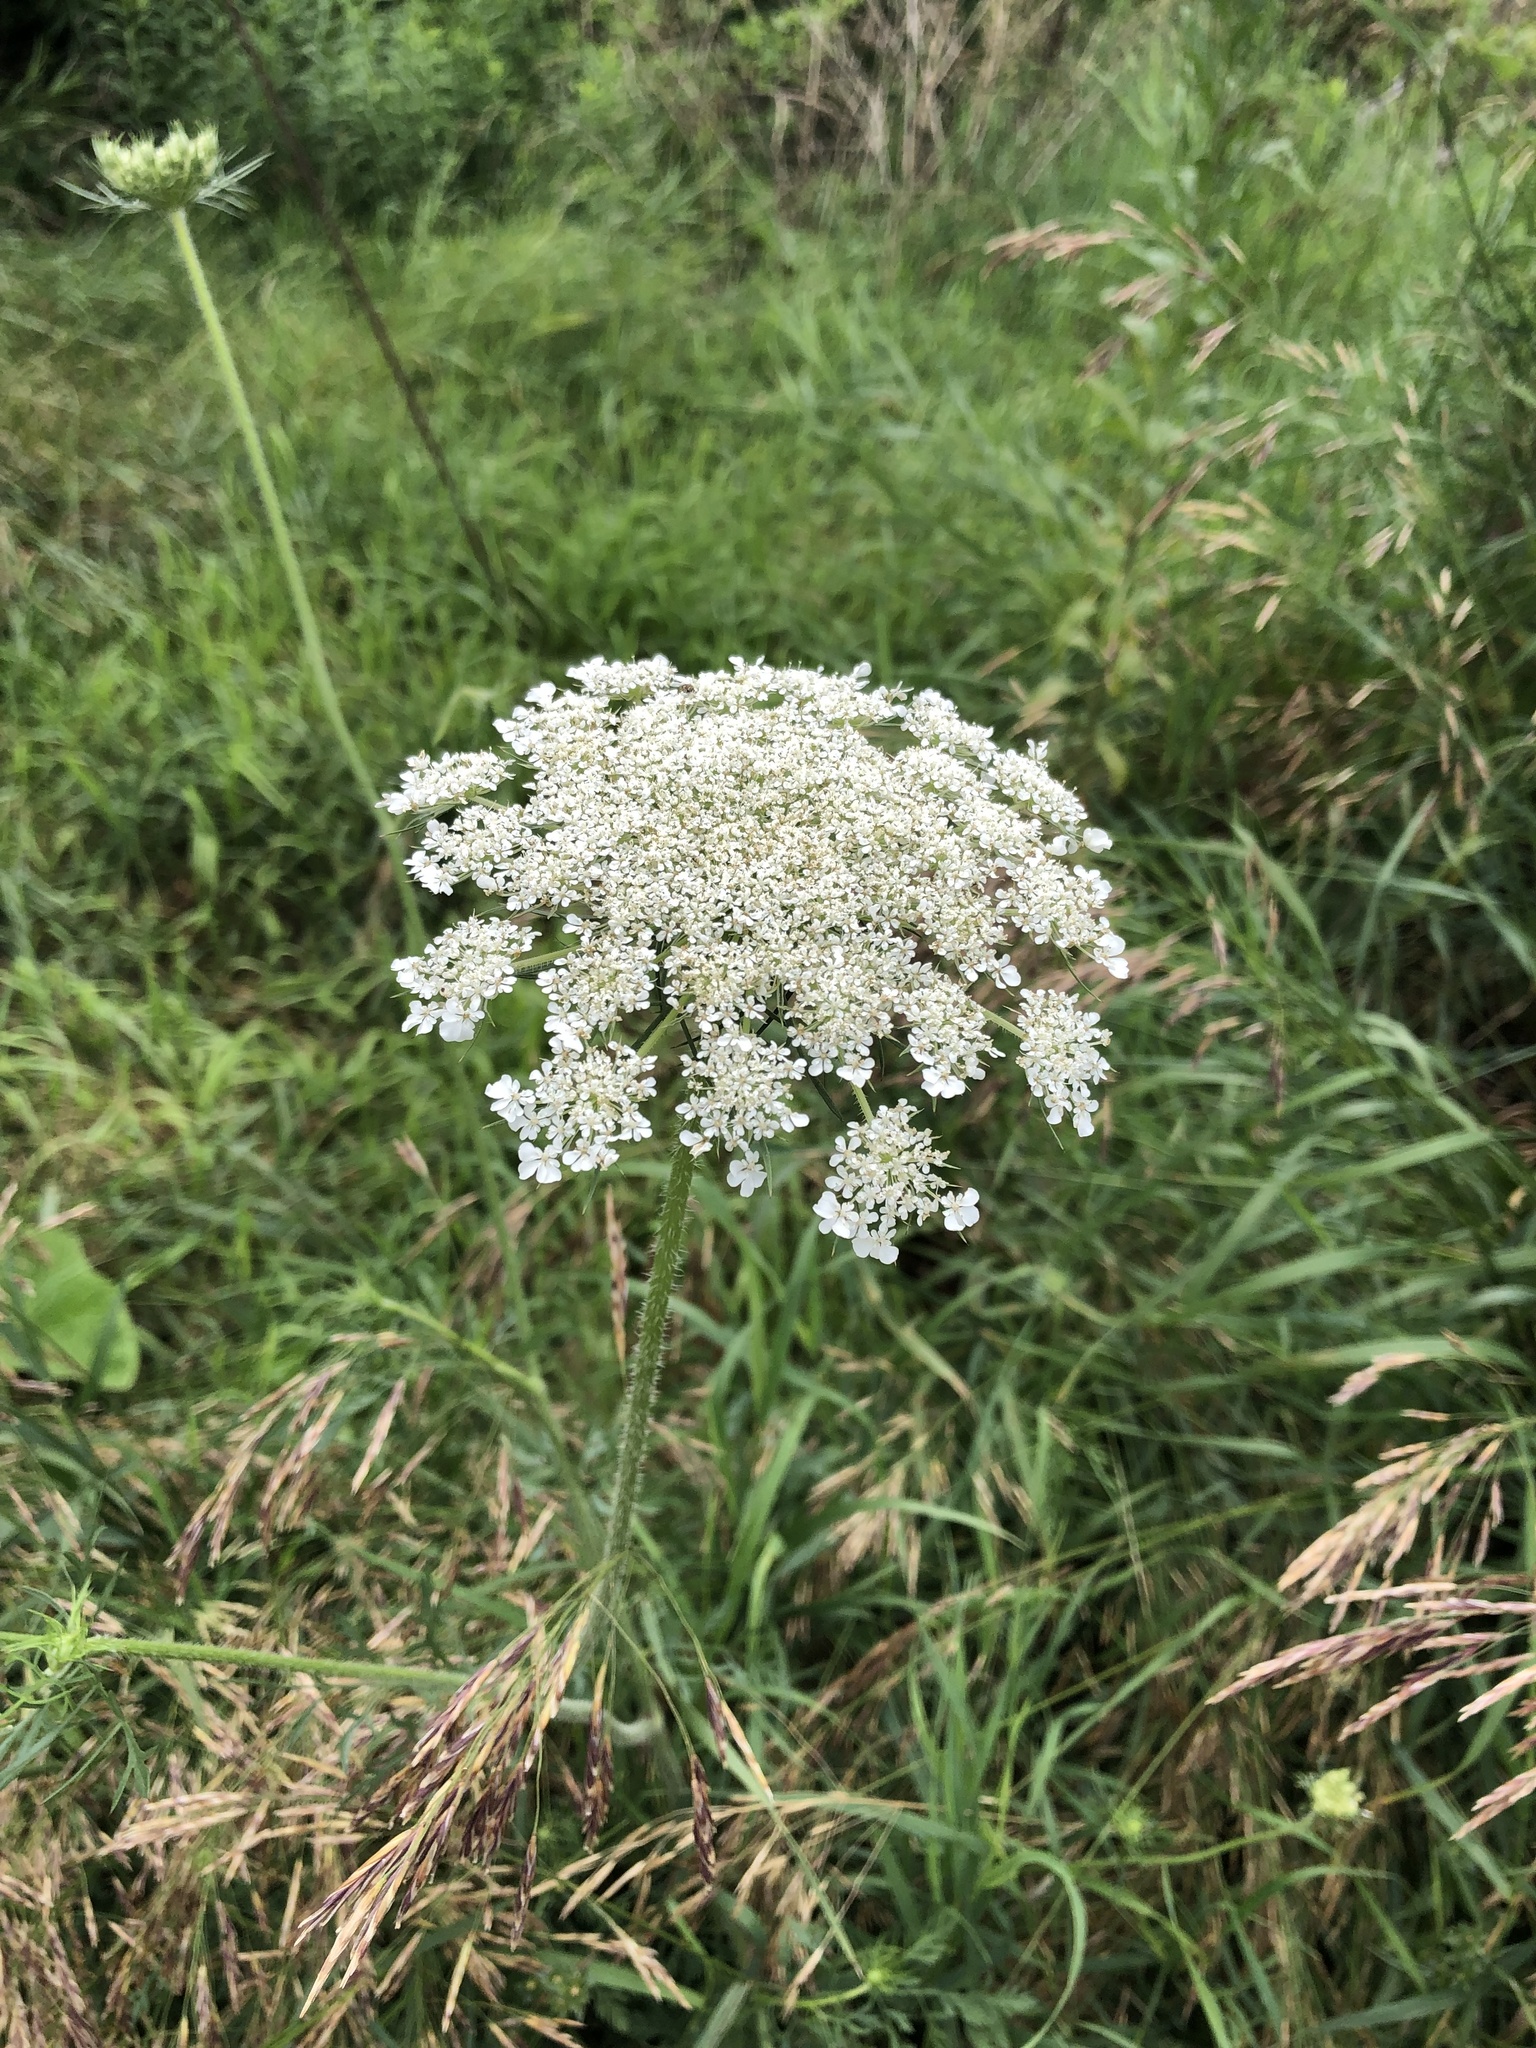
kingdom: Plantae
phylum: Tracheophyta
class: Magnoliopsida
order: Apiales
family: Apiaceae
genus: Daucus
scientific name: Daucus carota
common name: Wild carrot
